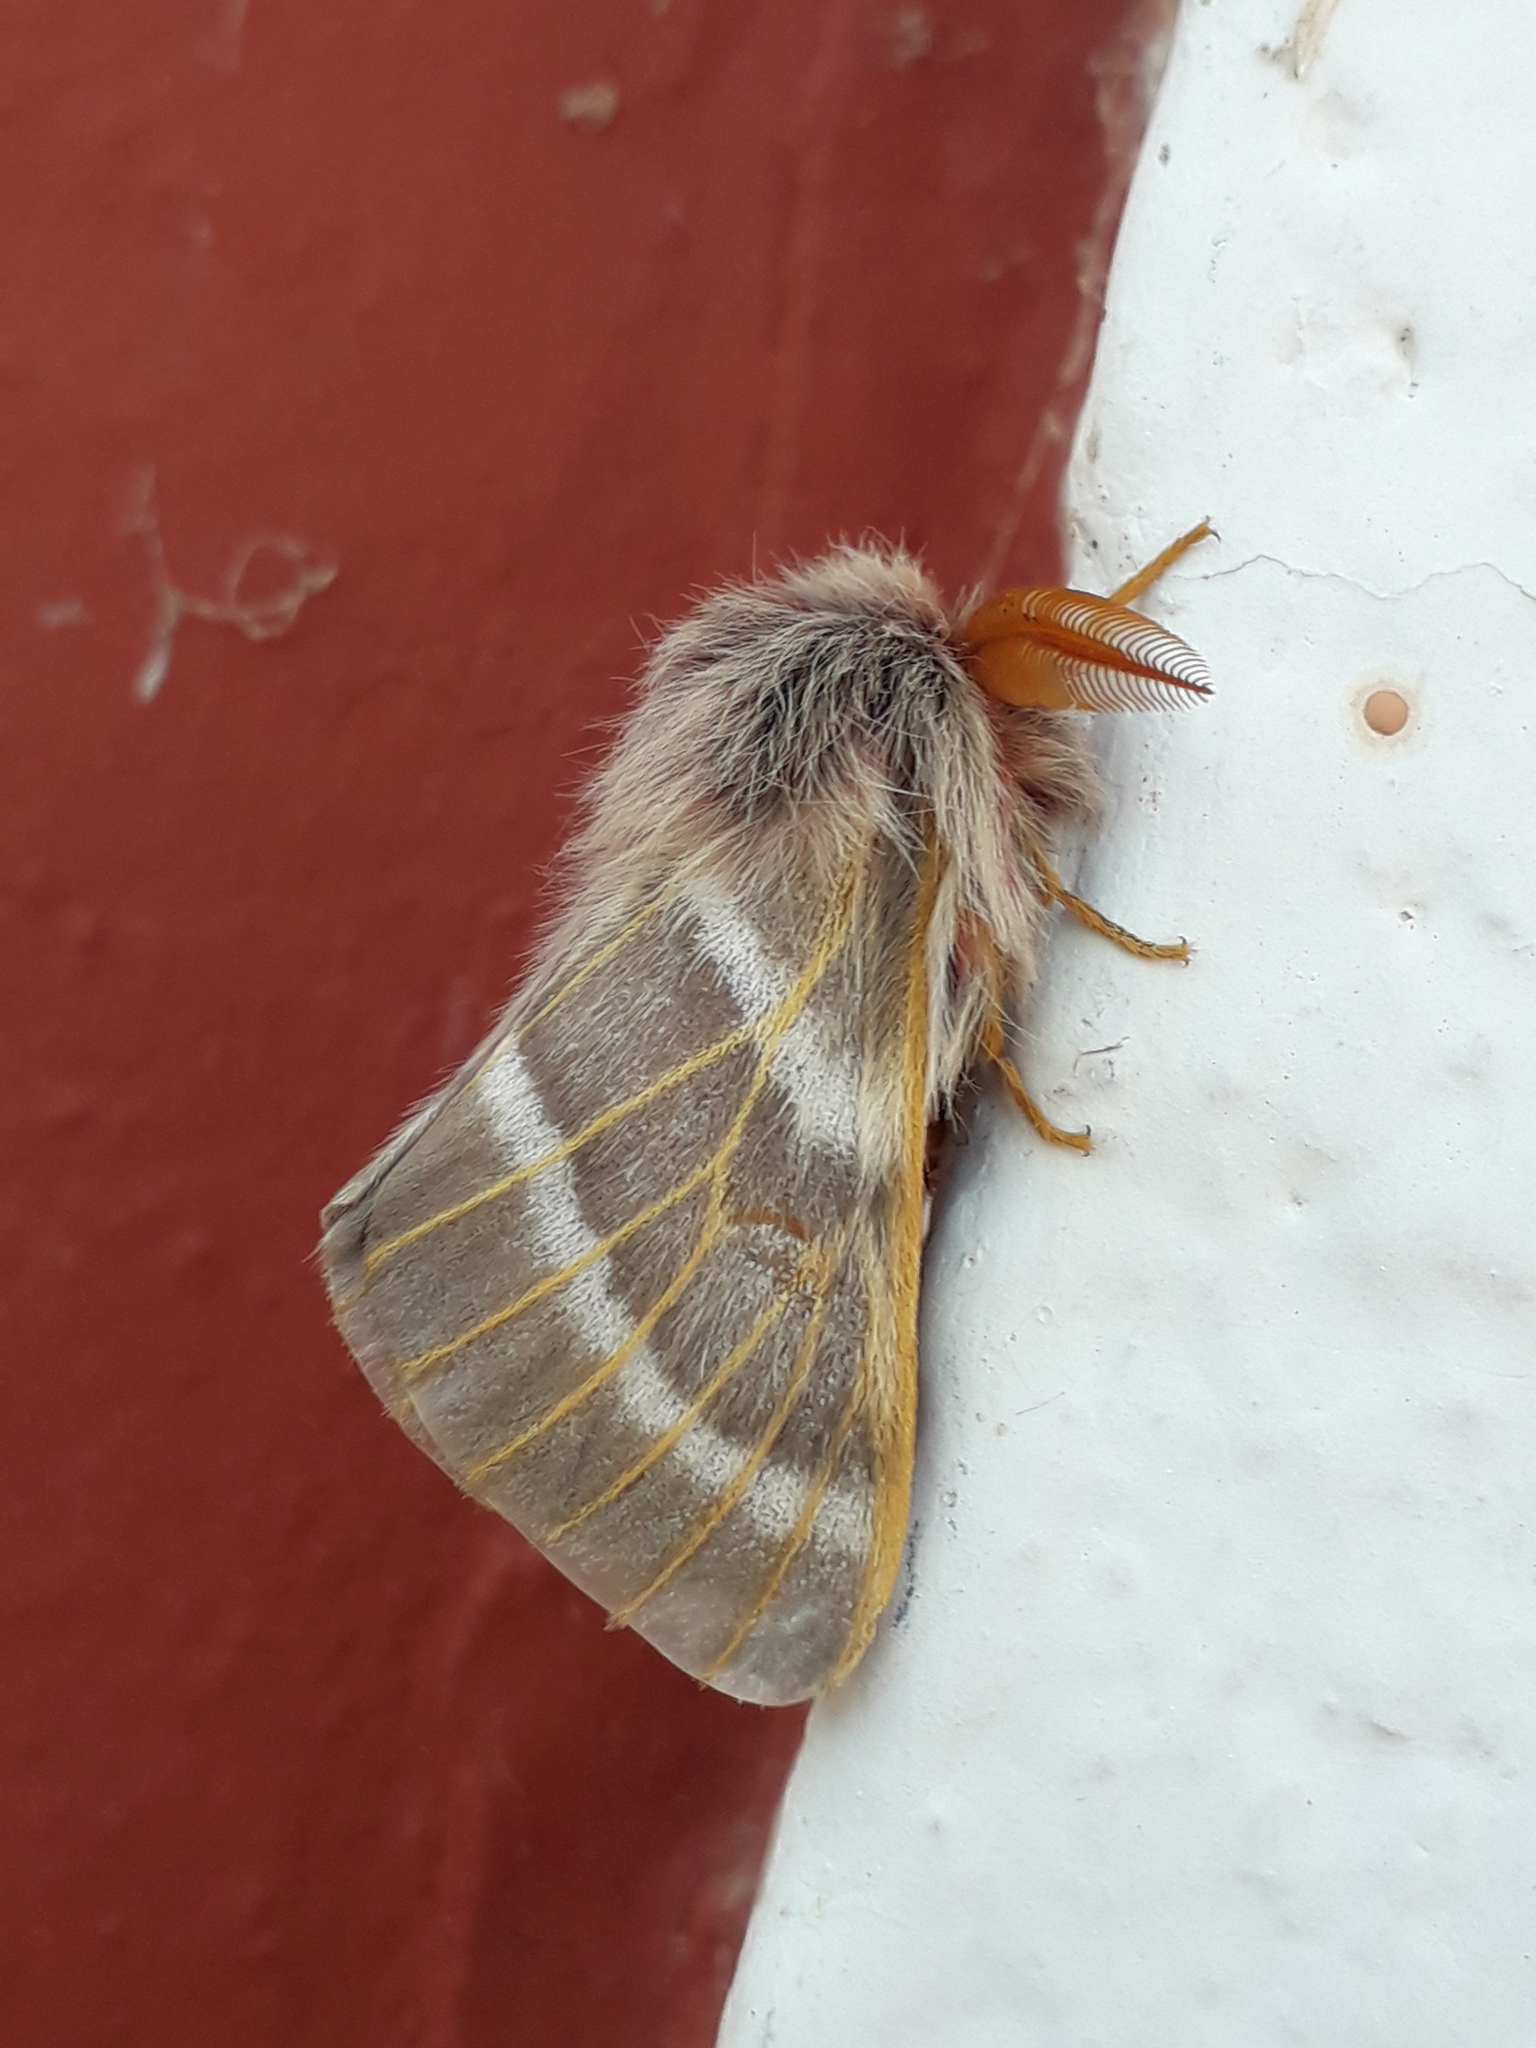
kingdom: Animalia
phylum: Arthropoda
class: Insecta
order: Lepidoptera
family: Saturniidae
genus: Hemileuca
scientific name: Hemileuca rubridorsa
